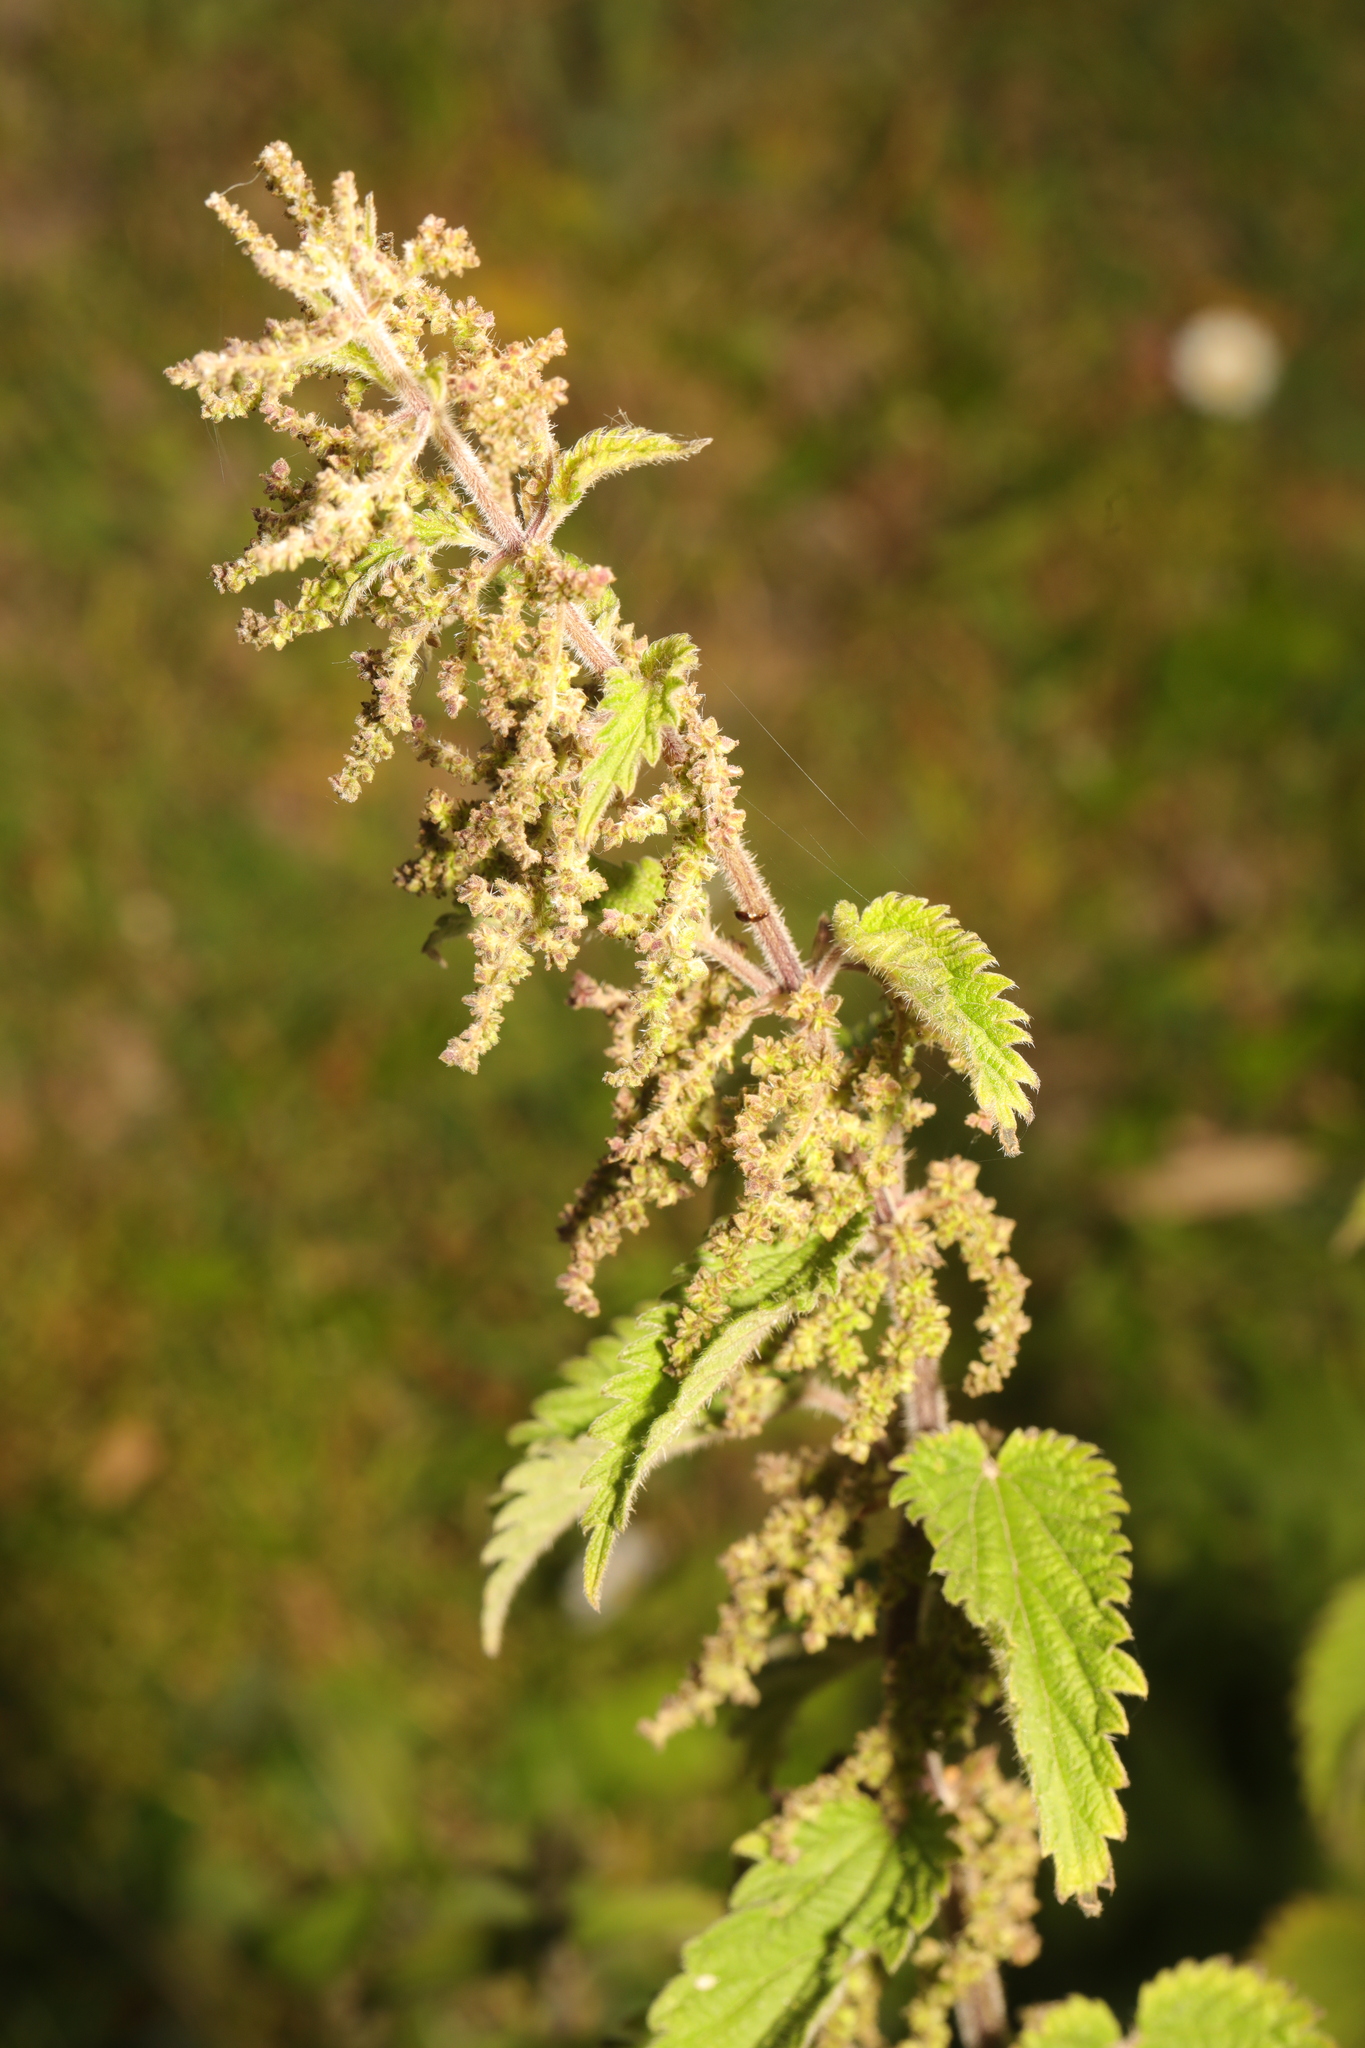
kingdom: Plantae
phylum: Tracheophyta
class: Magnoliopsida
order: Rosales
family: Urticaceae
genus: Urtica
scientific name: Urtica dioica
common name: Common nettle
